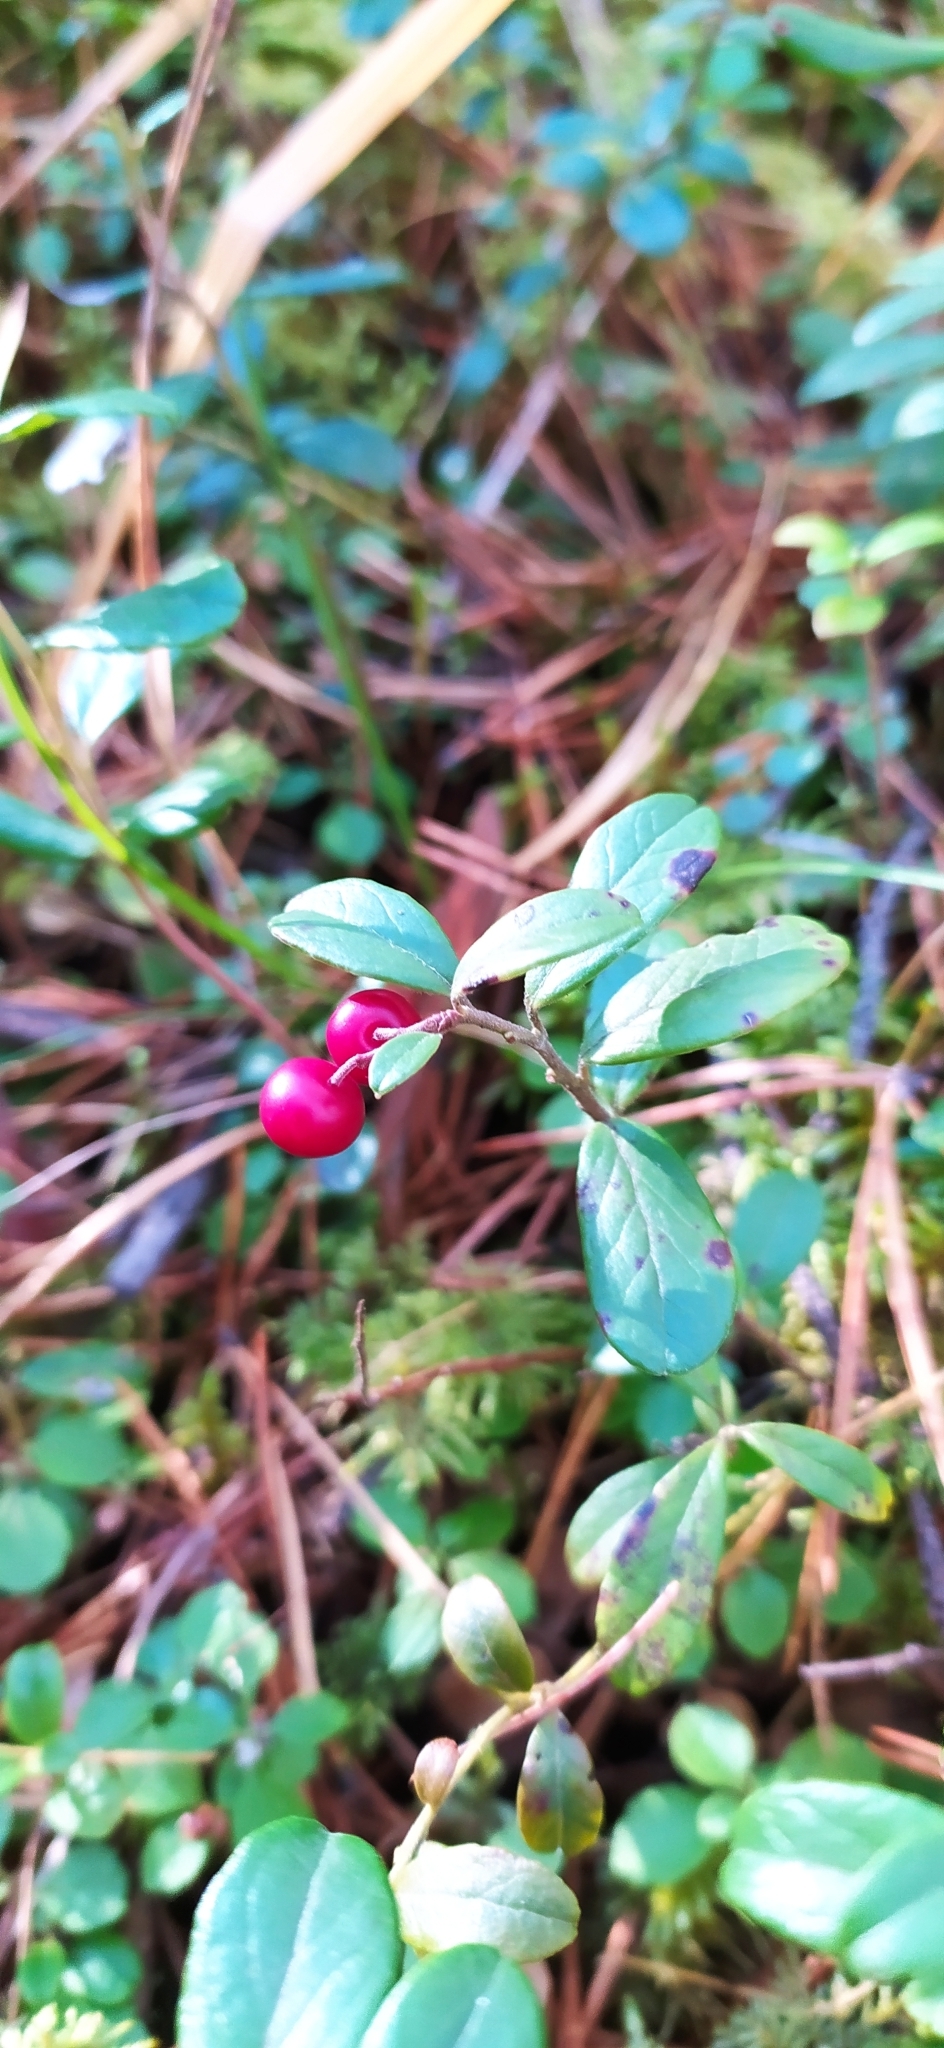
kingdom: Plantae
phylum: Tracheophyta
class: Magnoliopsida
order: Ericales
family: Ericaceae
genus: Vaccinium
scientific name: Vaccinium vitis-idaea
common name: Cowberry
